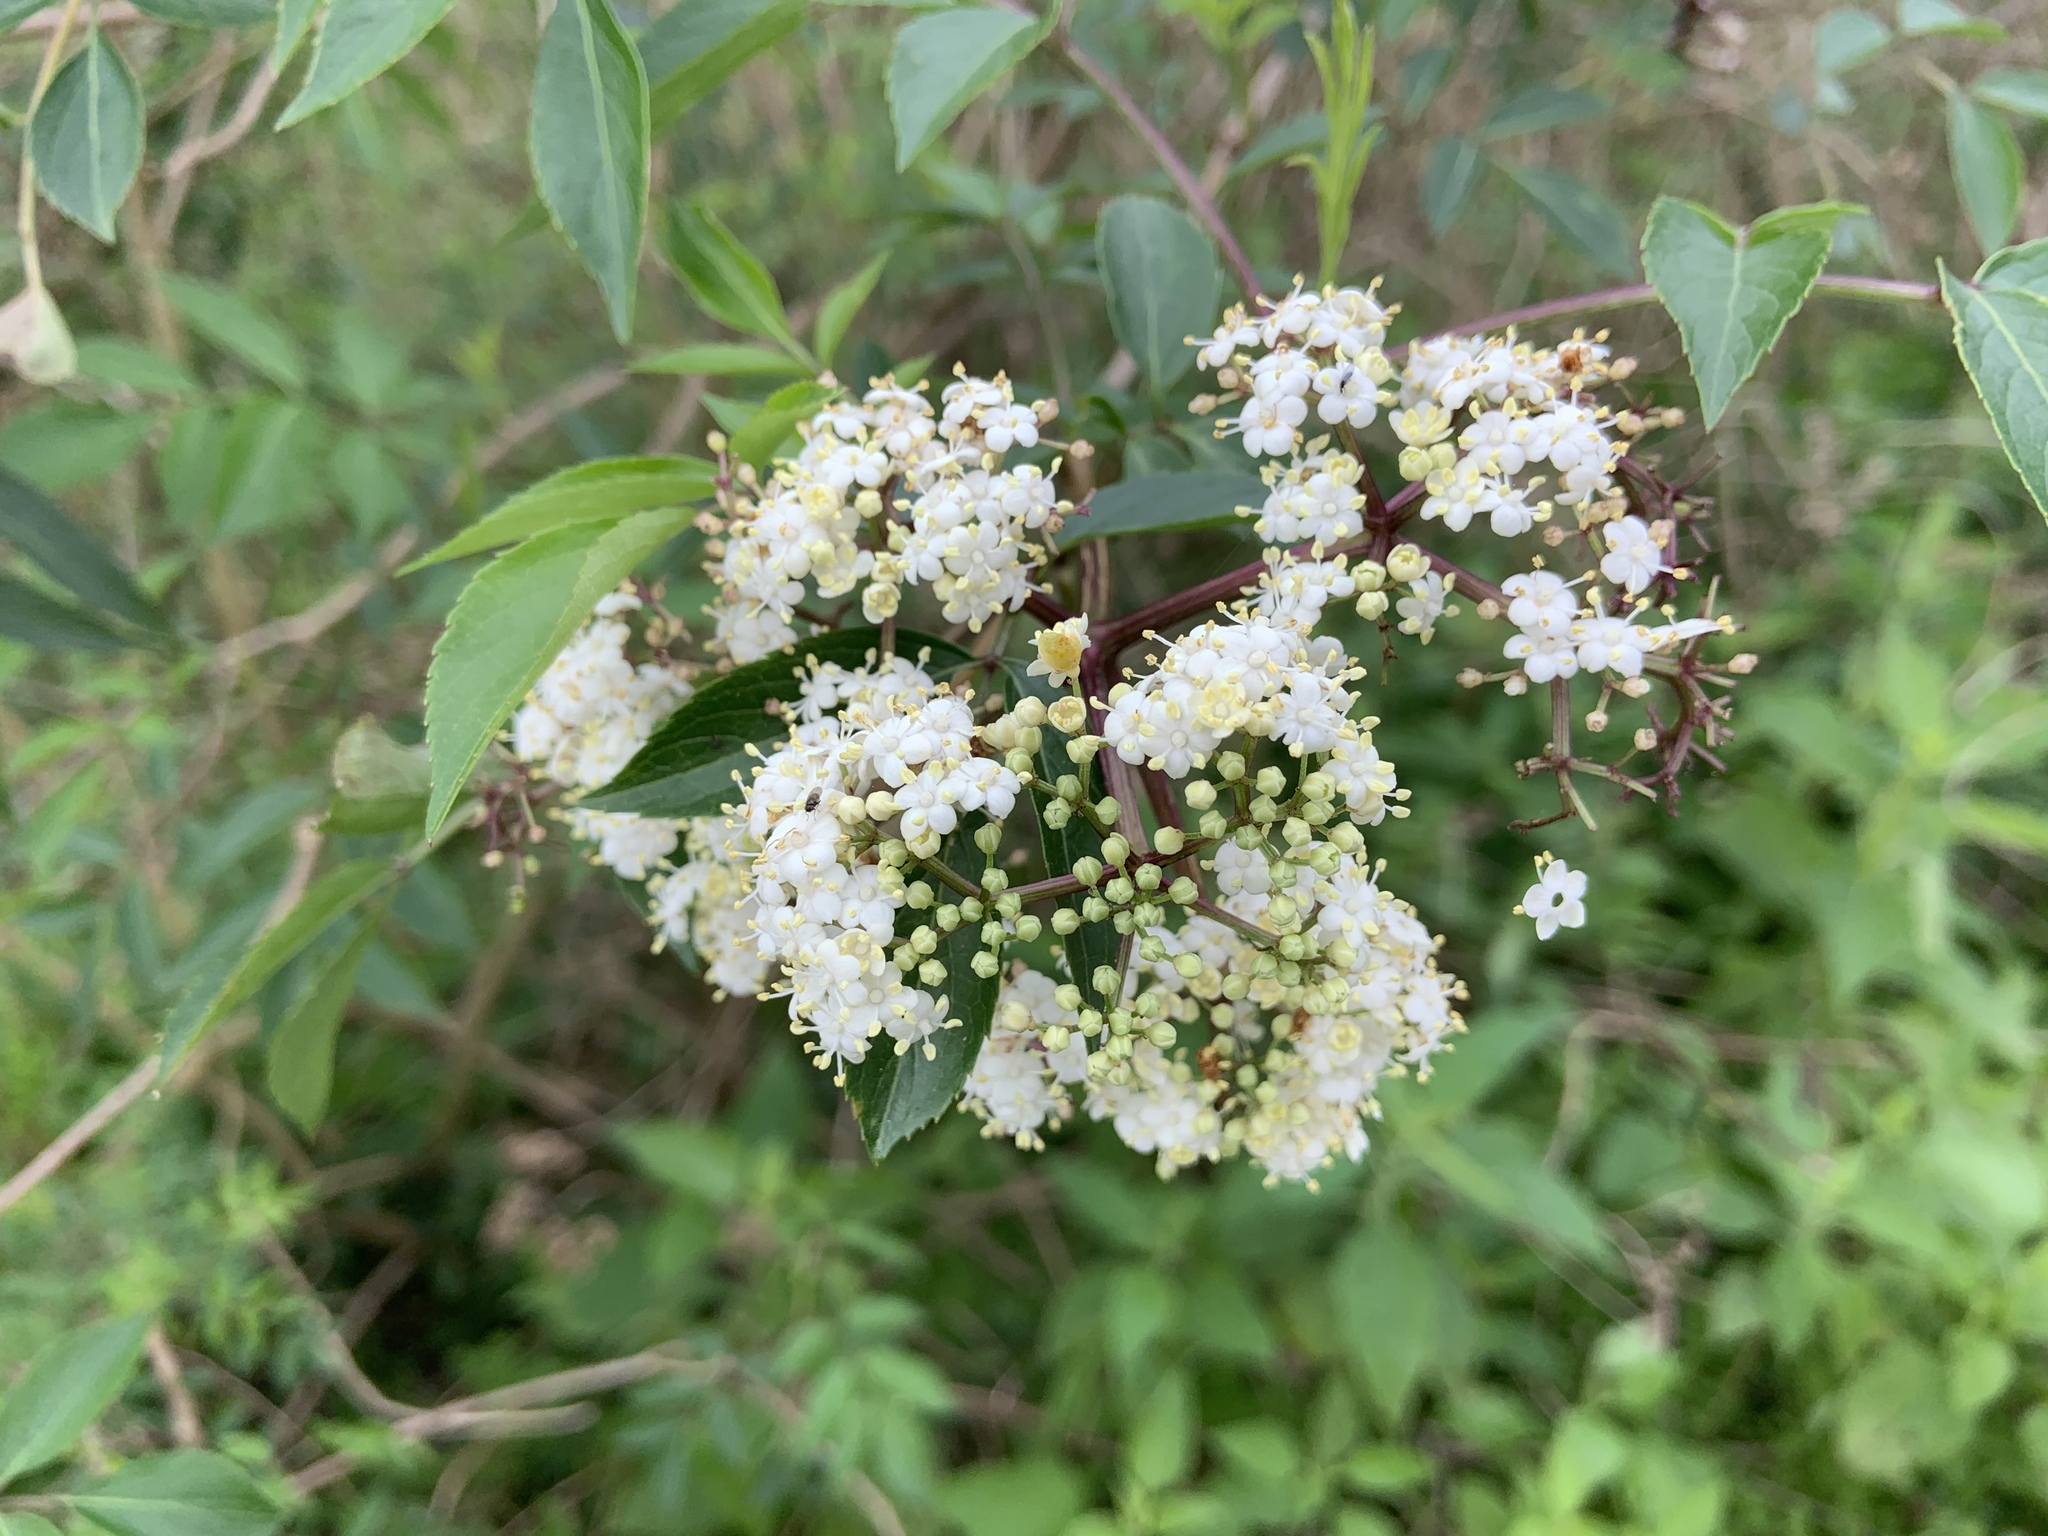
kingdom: Plantae
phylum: Tracheophyta
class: Magnoliopsida
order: Dipsacales
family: Viburnaceae
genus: Sambucus
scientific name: Sambucus canadensis
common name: American elder
